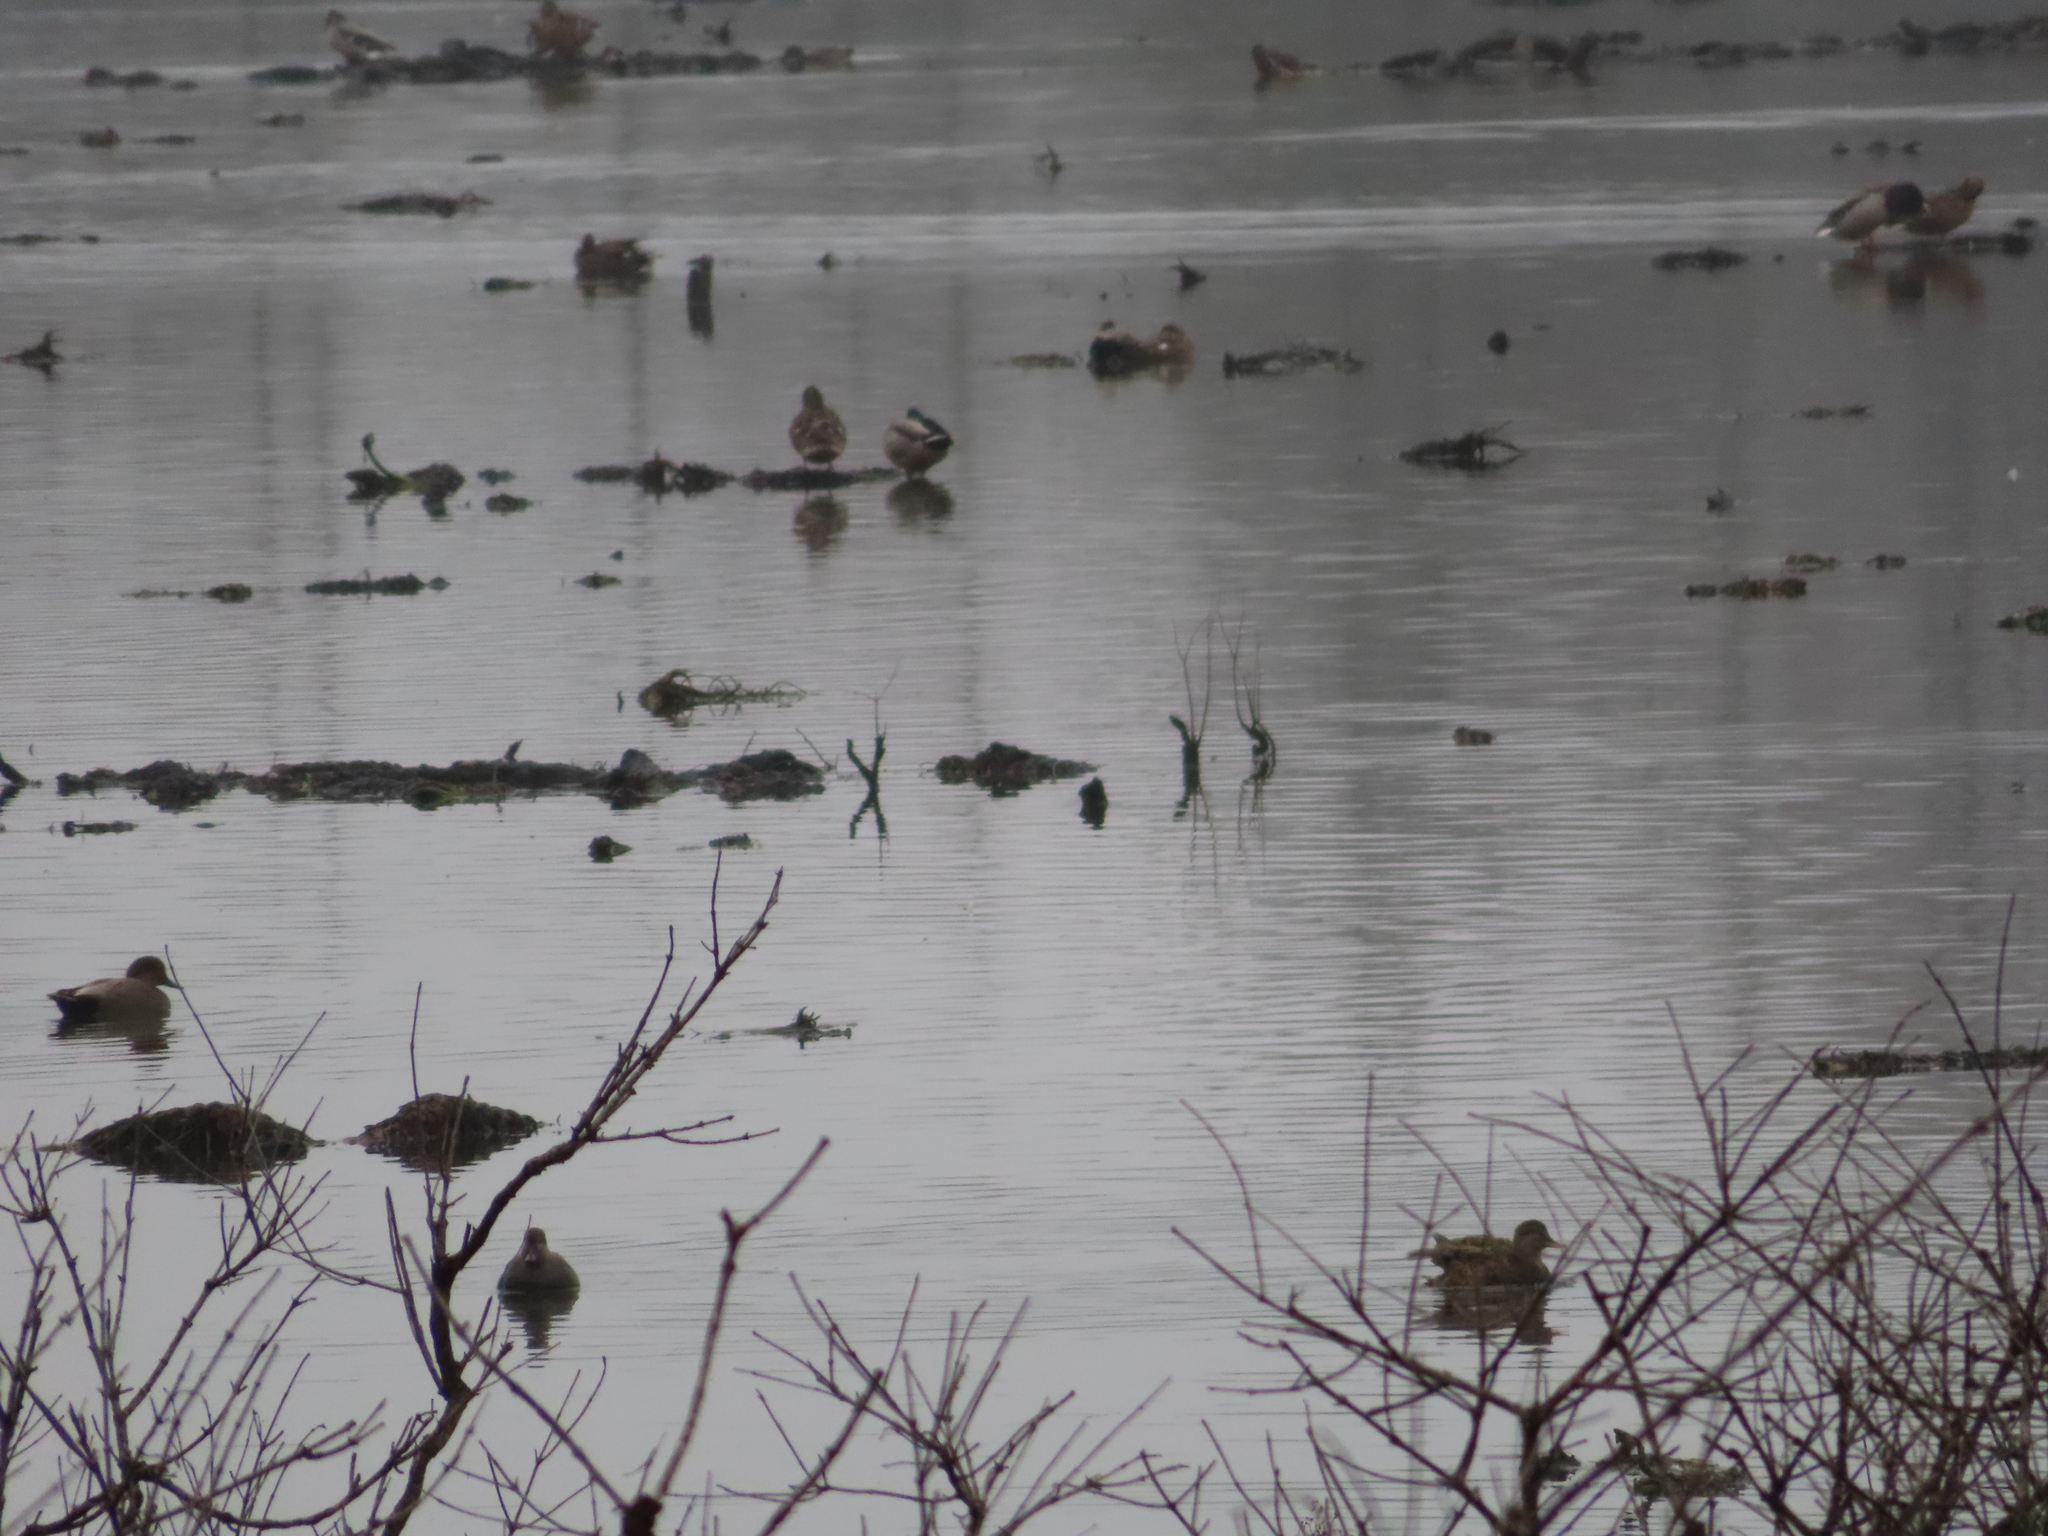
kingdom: Animalia
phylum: Chordata
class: Aves
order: Anseriformes
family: Anatidae
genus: Anas
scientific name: Anas platyrhynchos
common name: Mallard
